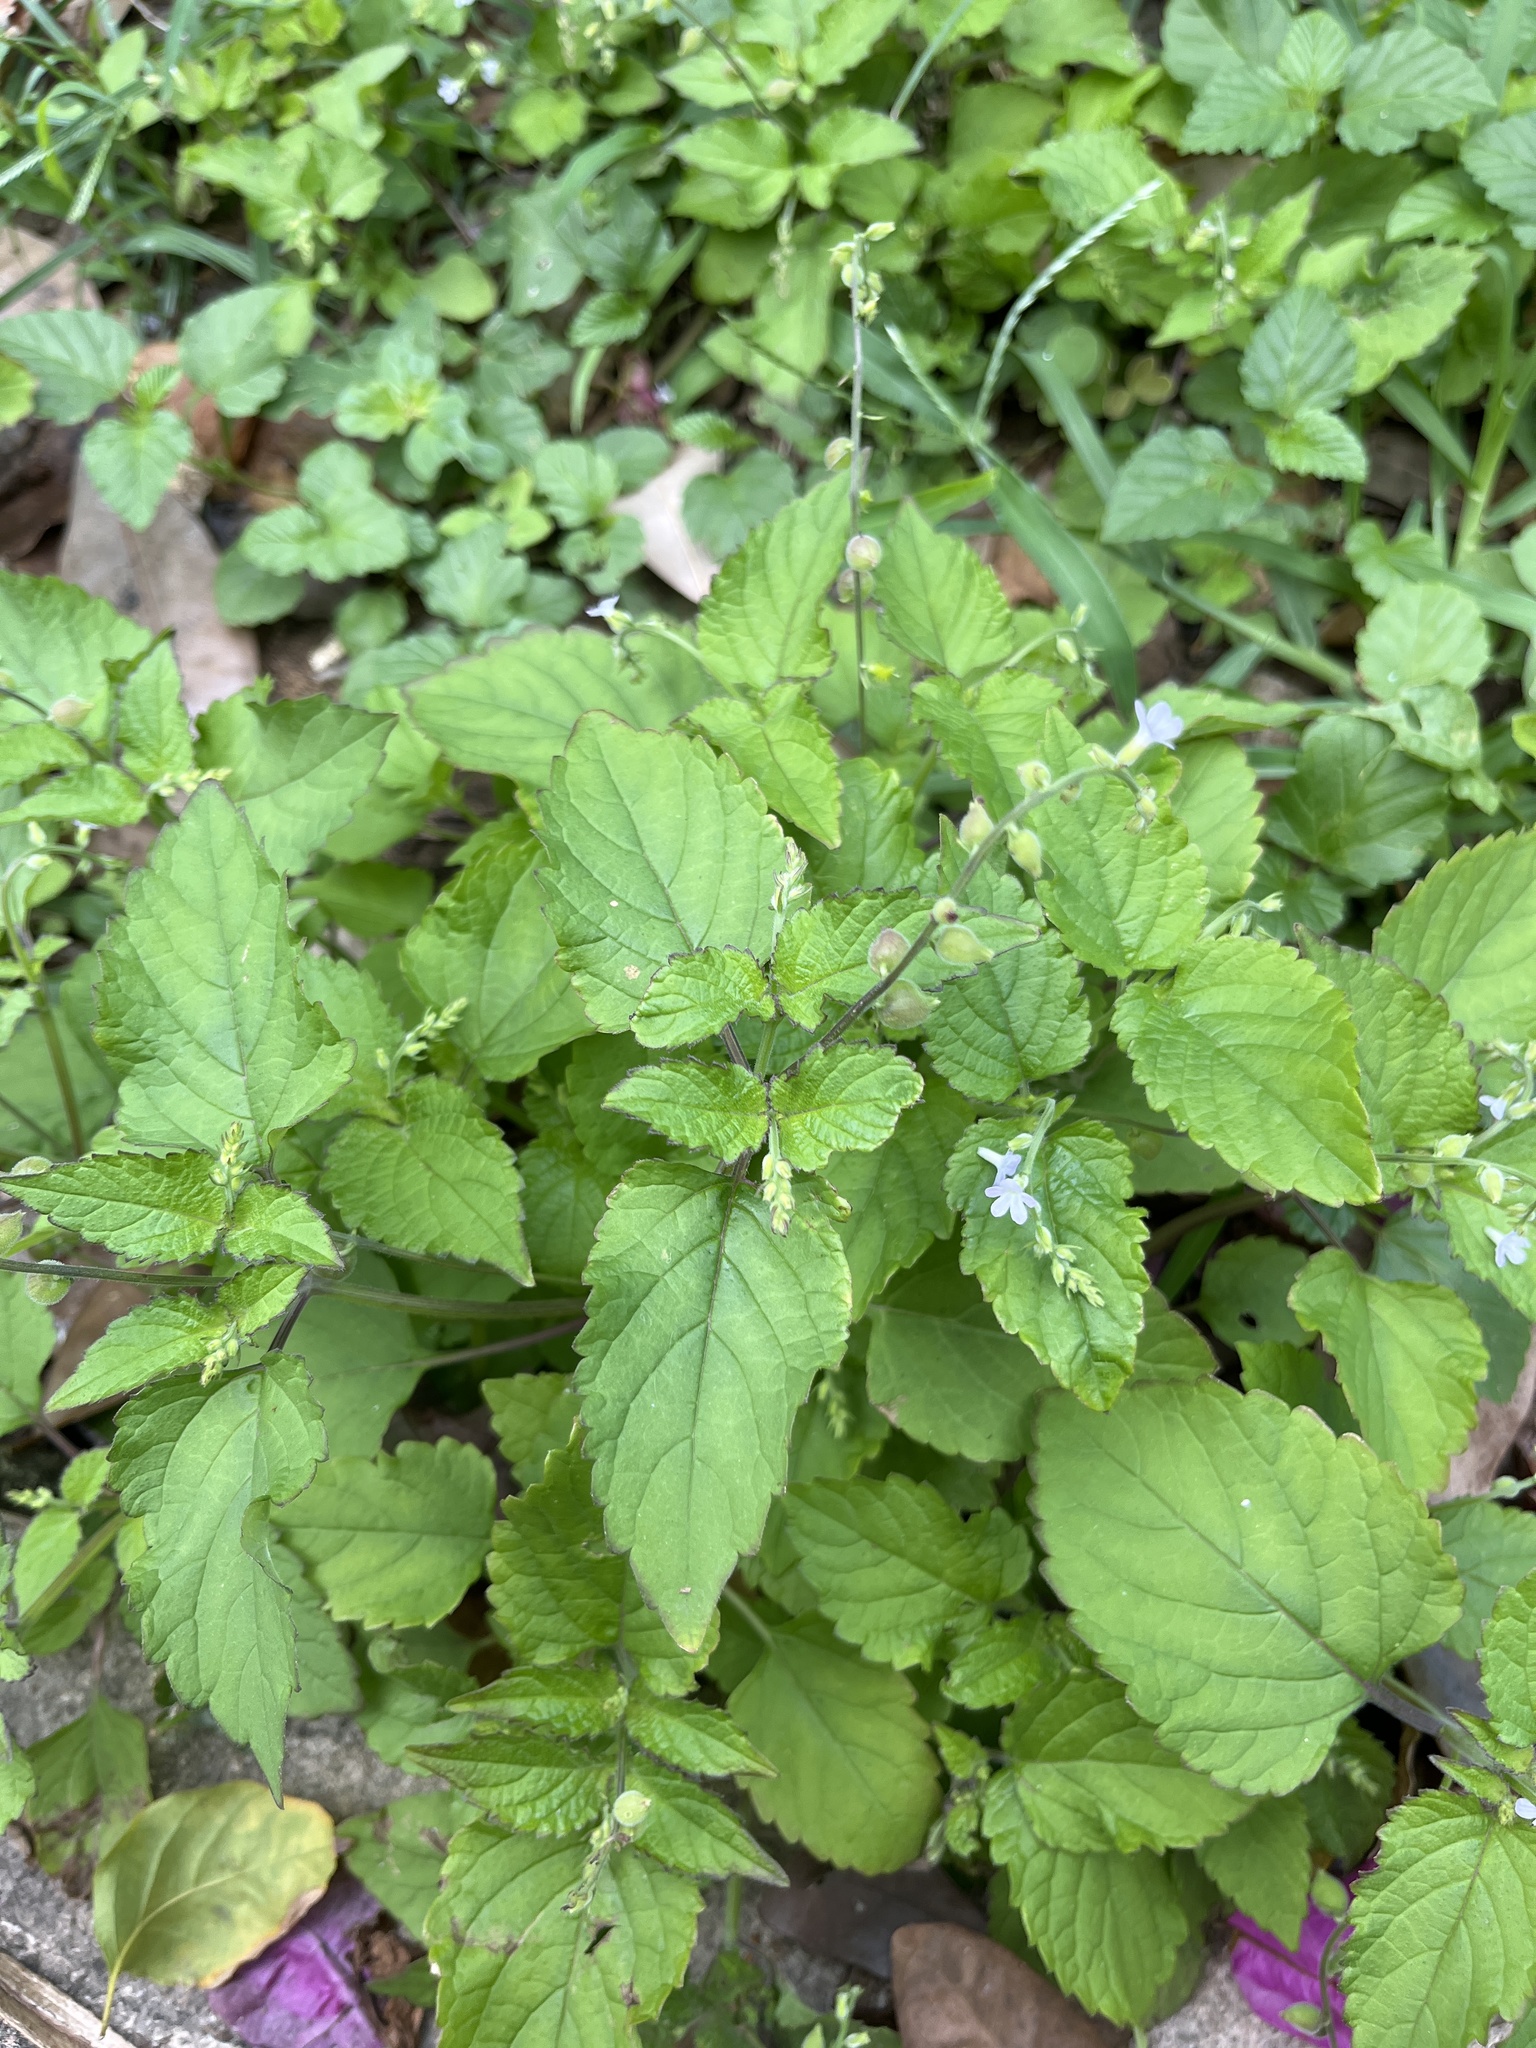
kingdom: Plantae
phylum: Tracheophyta
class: Magnoliopsida
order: Lamiales
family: Verbenaceae
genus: Priva
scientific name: Priva lappulacea
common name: Fasten-'pon-coat
